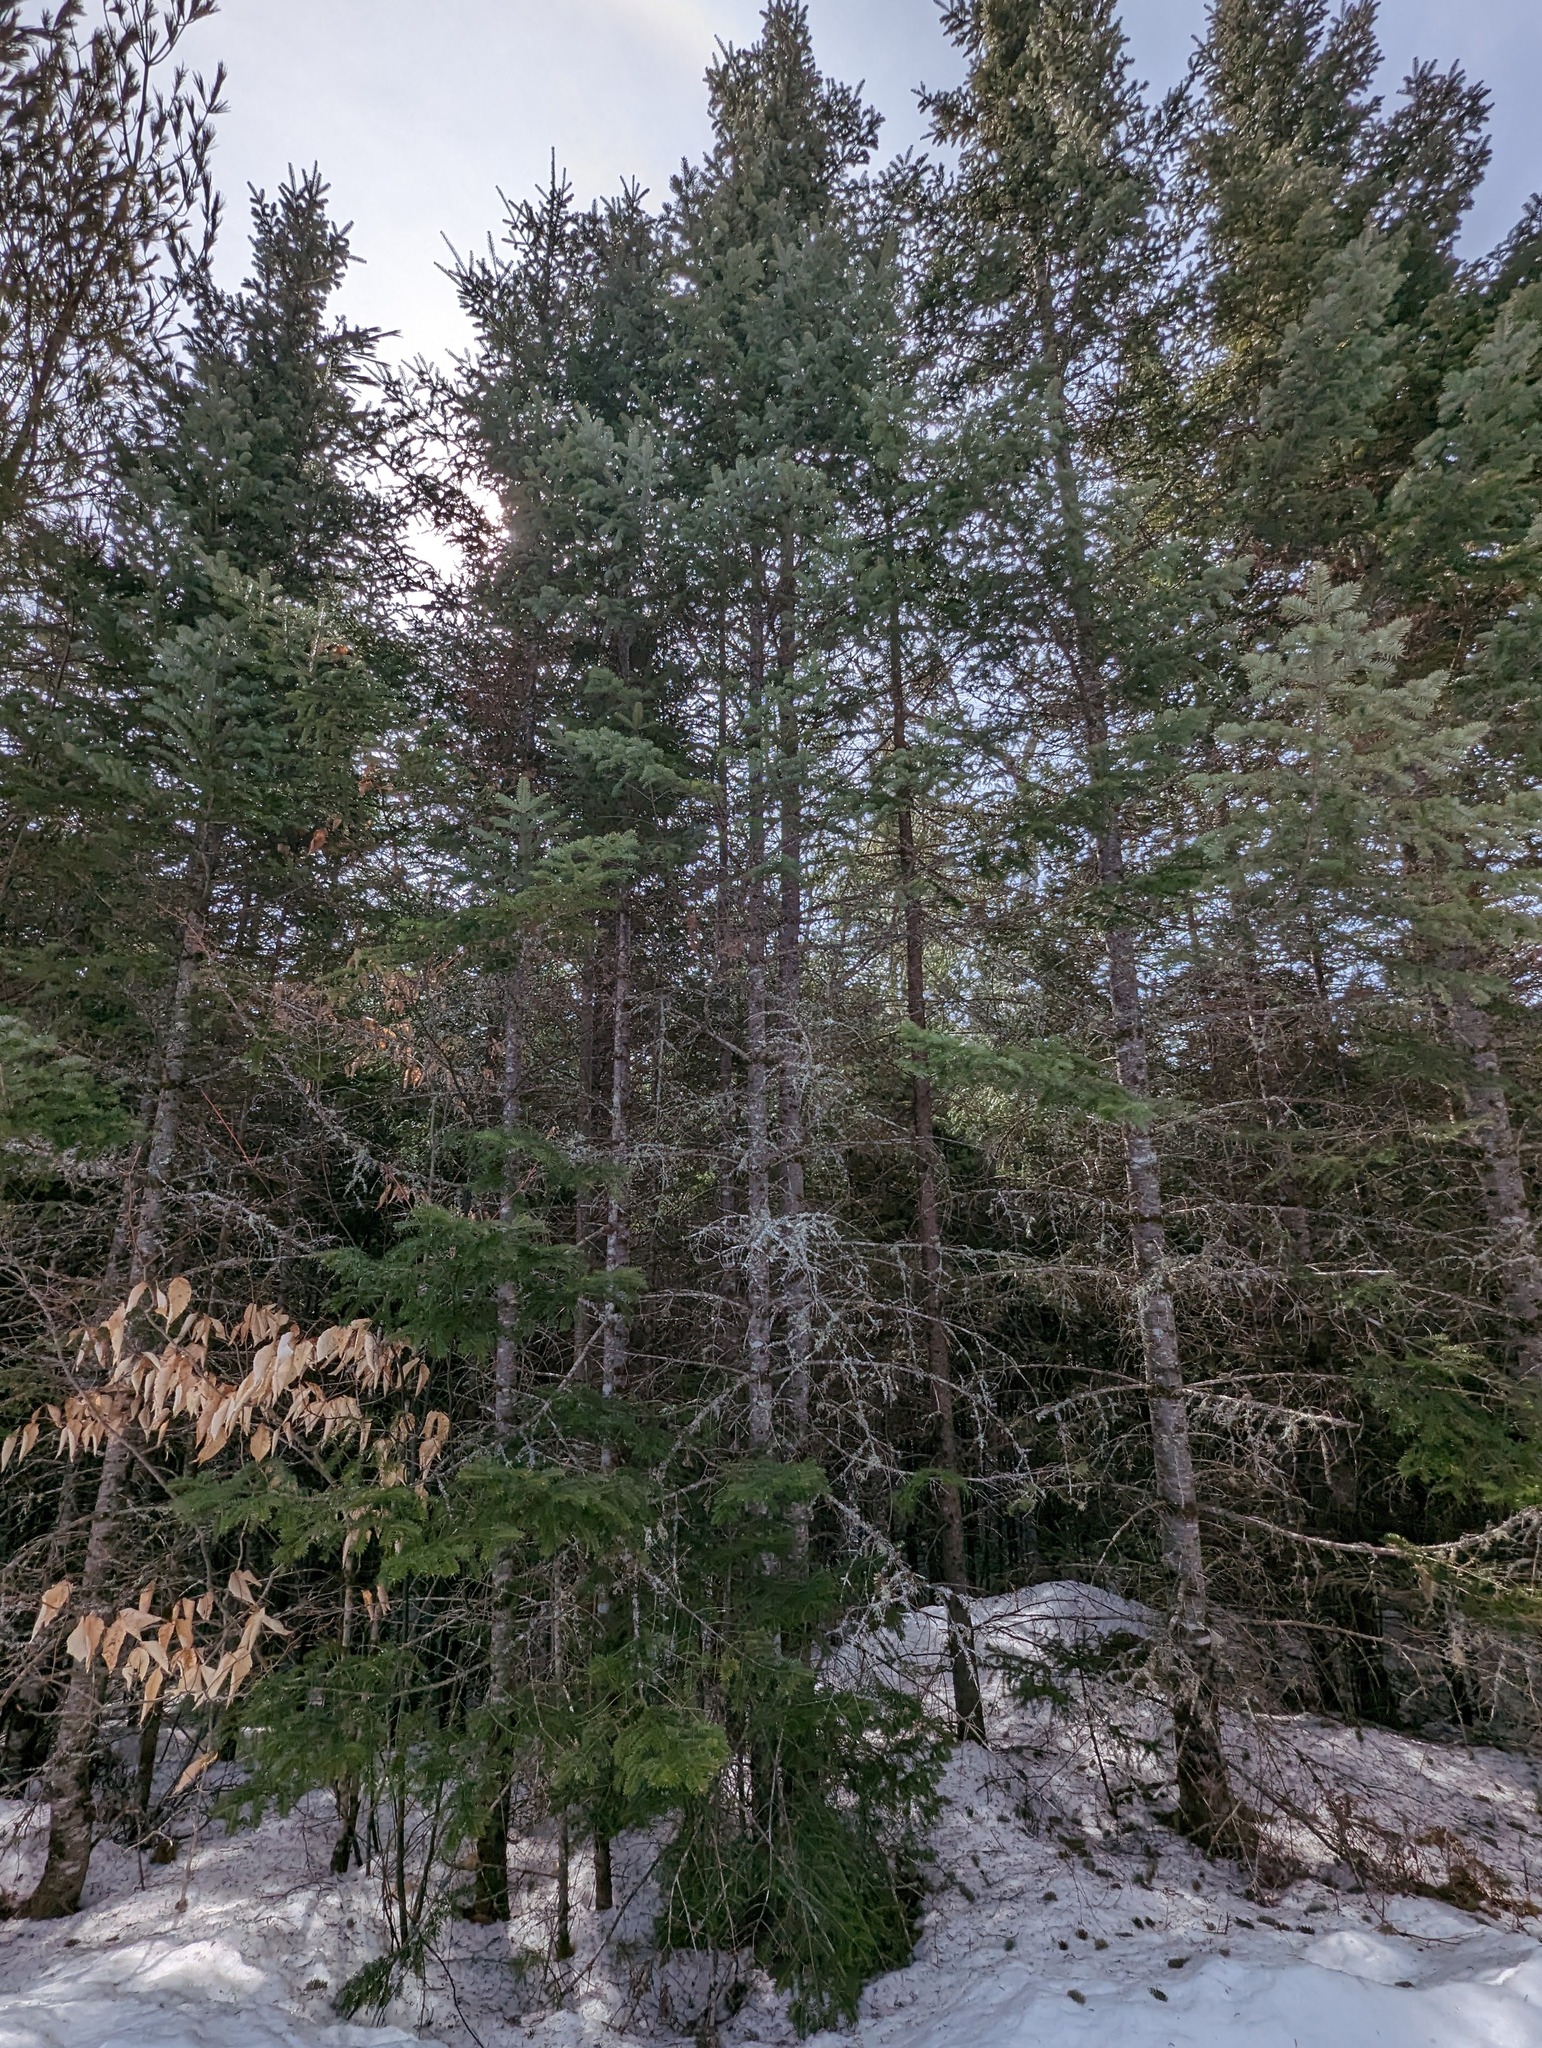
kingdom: Plantae
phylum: Tracheophyta
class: Pinopsida
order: Pinales
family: Pinaceae
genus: Abies
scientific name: Abies balsamea
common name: Balsam fir
